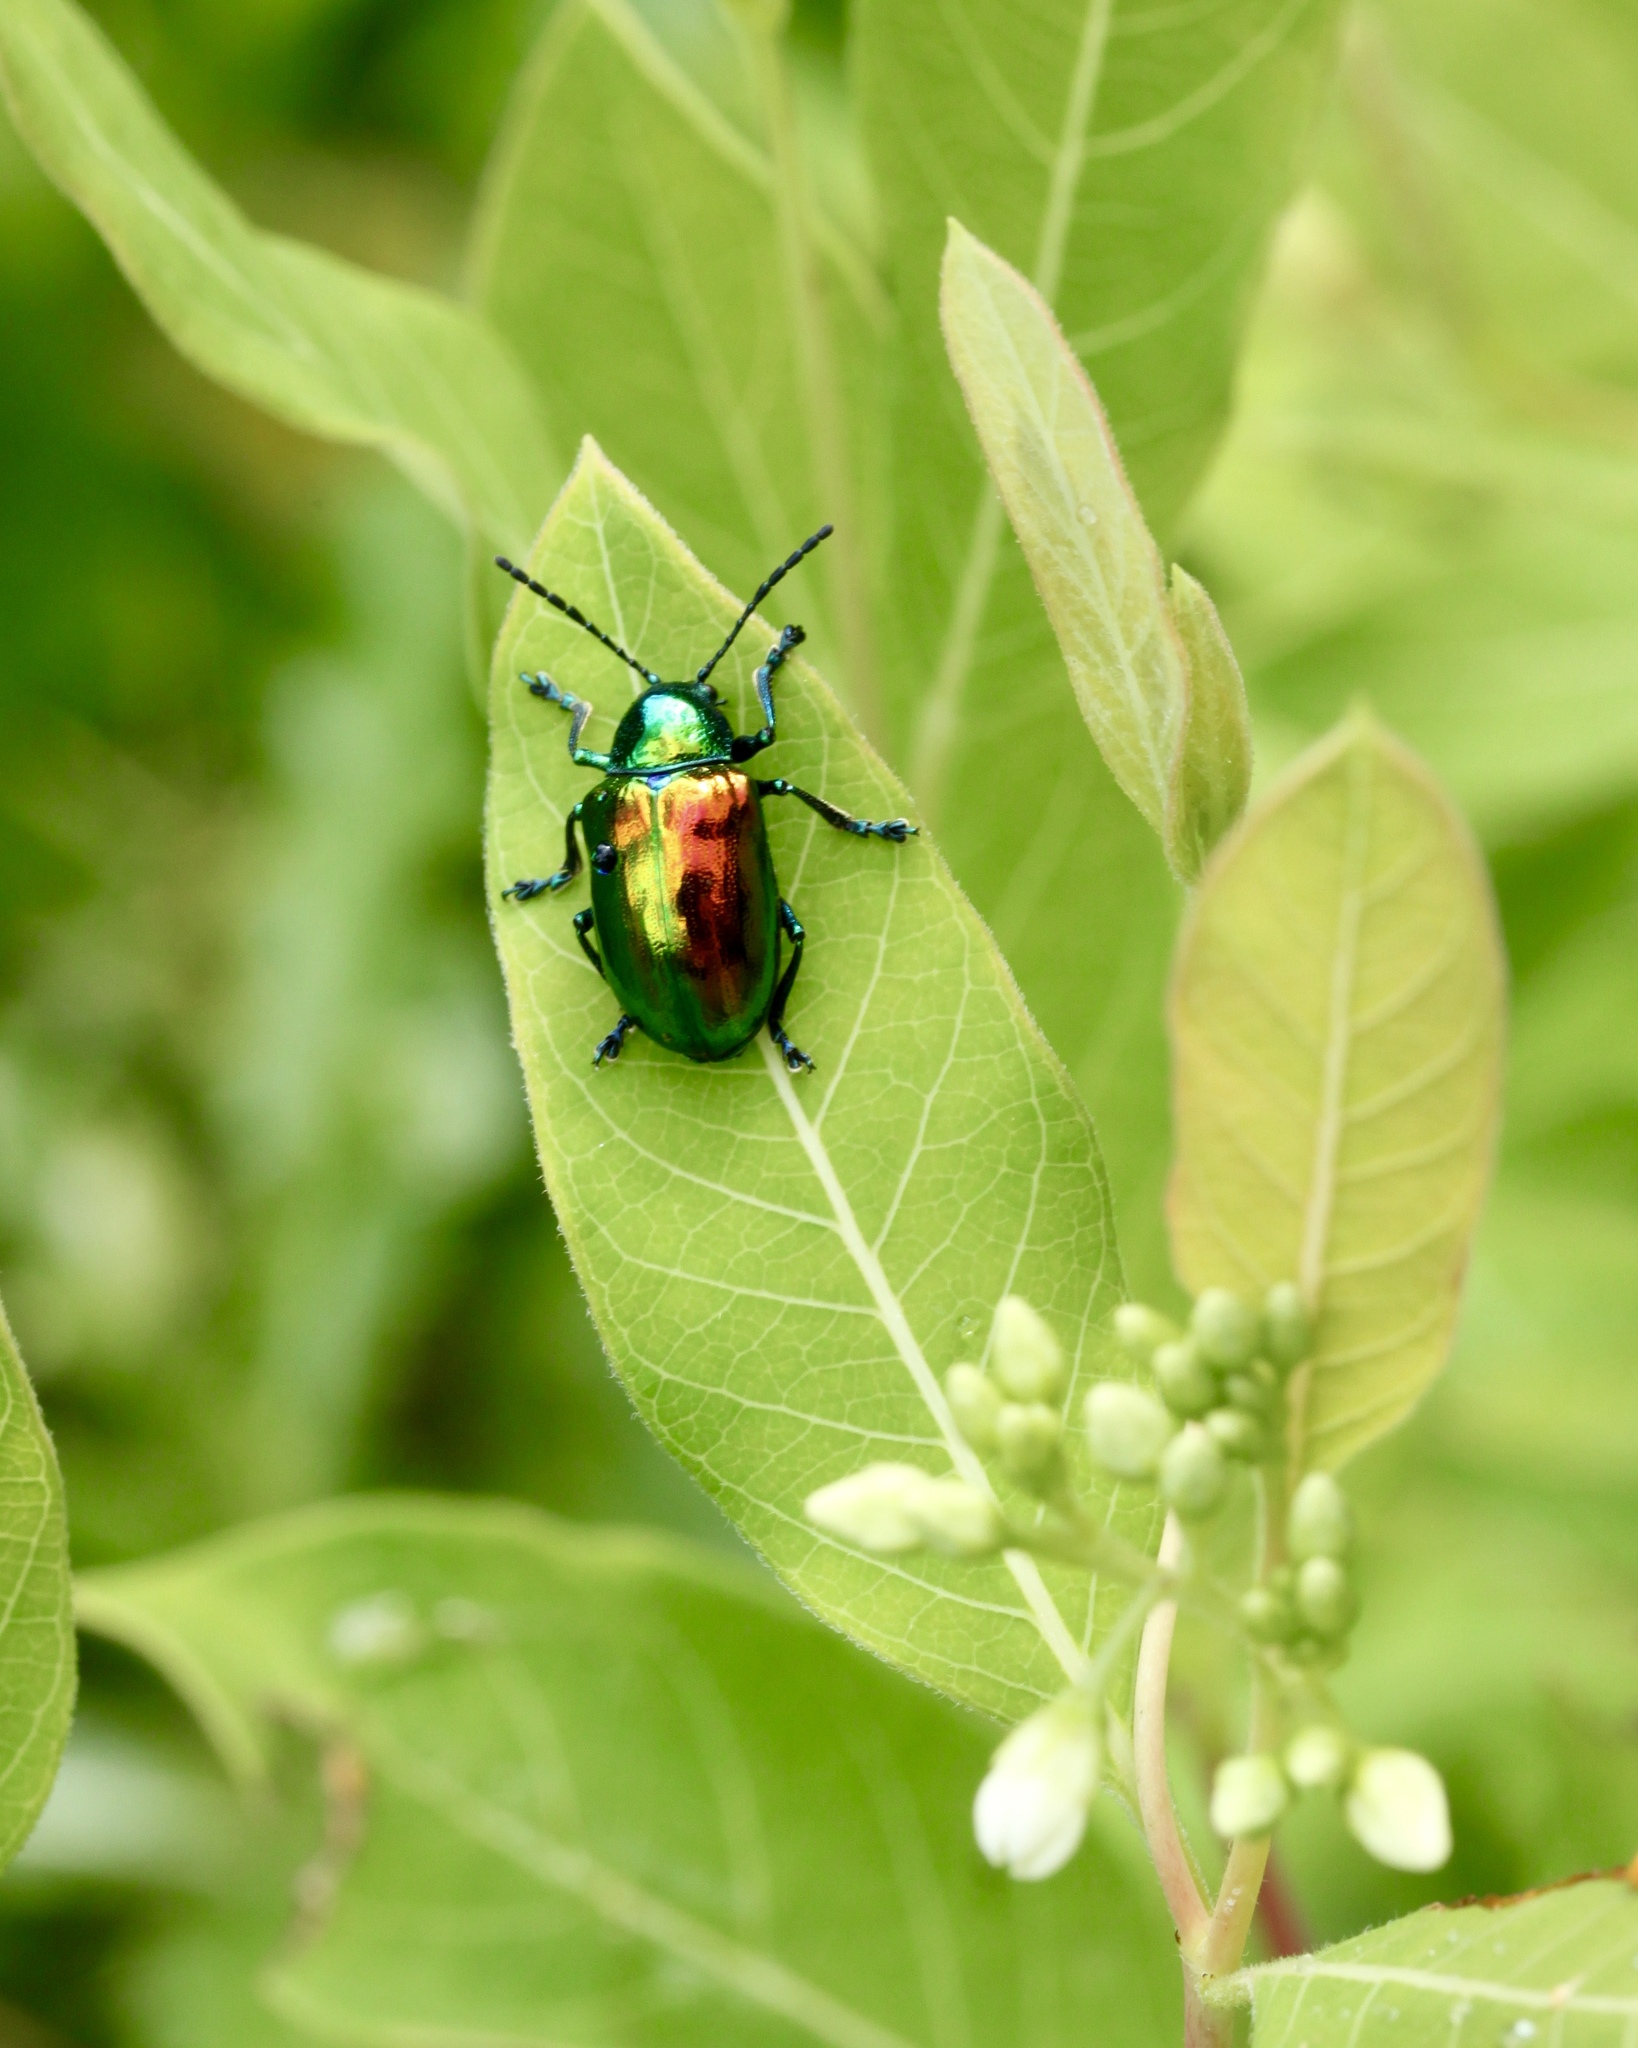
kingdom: Animalia
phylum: Arthropoda
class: Insecta
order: Coleoptera
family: Chrysomelidae
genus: Chrysochus
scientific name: Chrysochus auratus
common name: Dogbane leaf beetle
